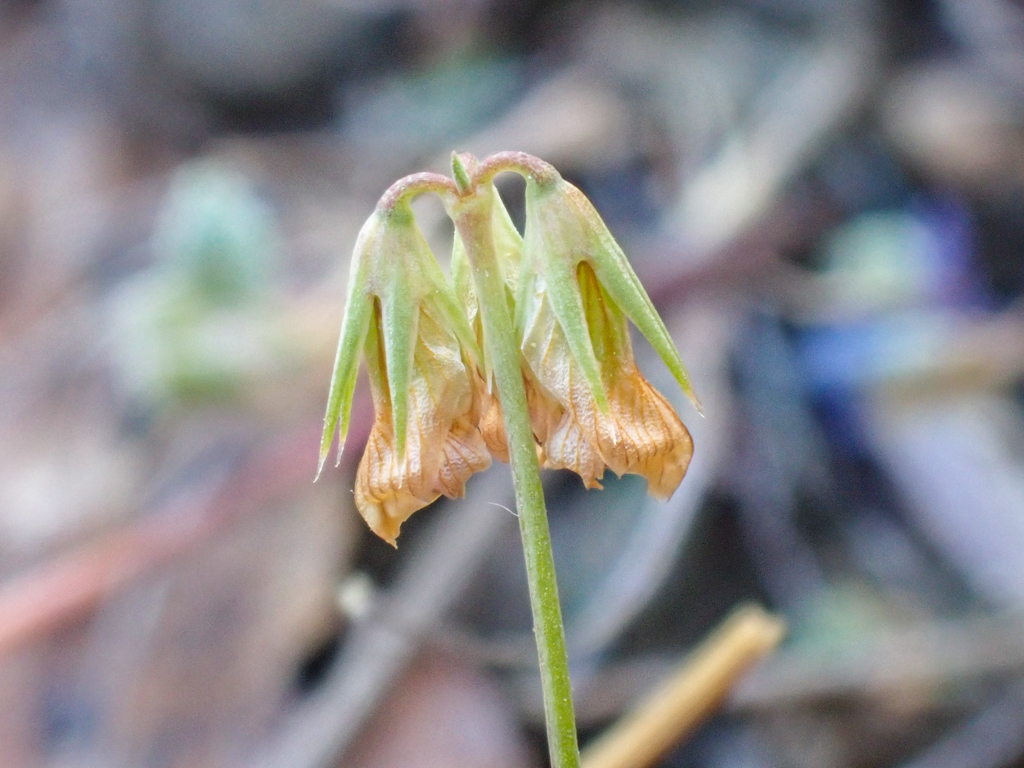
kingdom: Plantae
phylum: Tracheophyta
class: Magnoliopsida
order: Fabales
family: Fabaceae
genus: Trifolium
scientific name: Trifolium bifidum
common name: Notch-leaf clover
